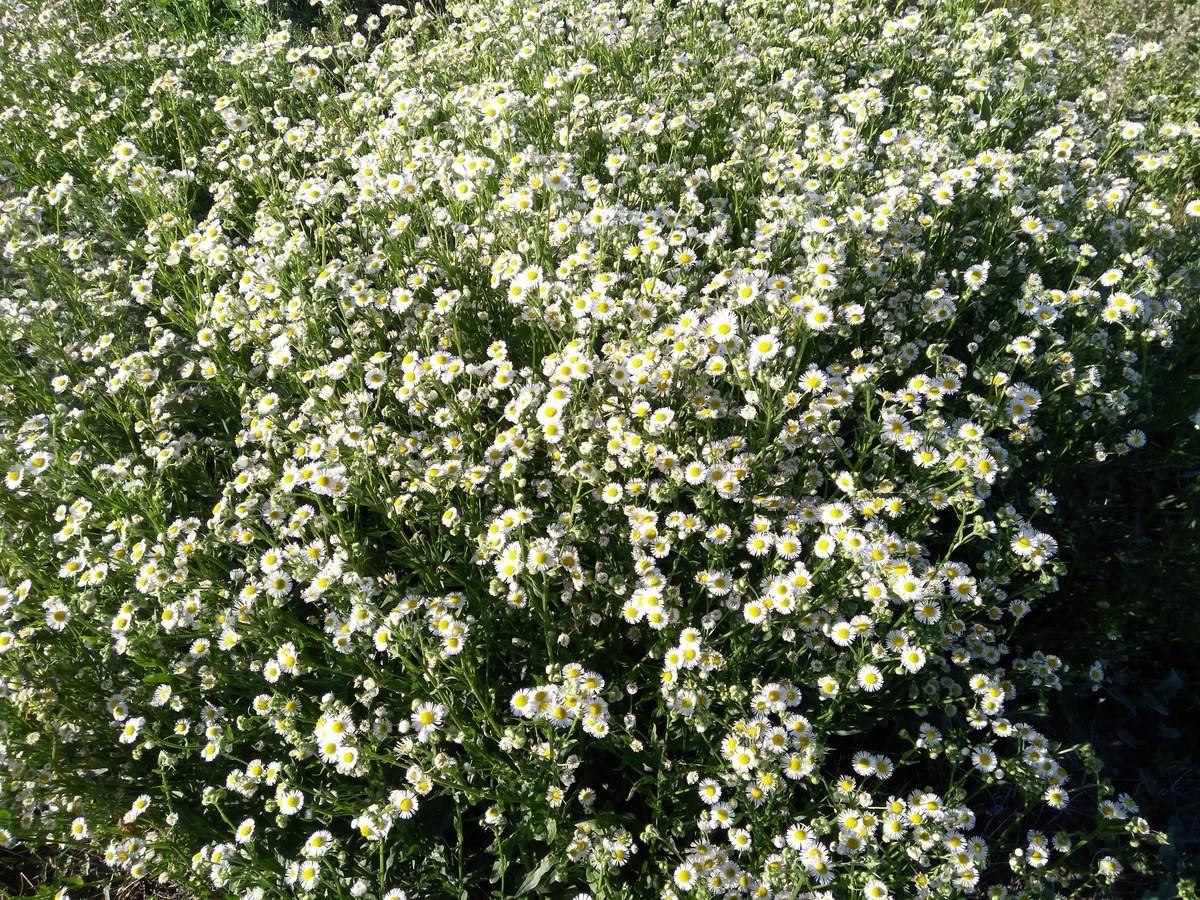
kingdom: Plantae
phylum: Tracheophyta
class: Magnoliopsida
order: Asterales
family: Asteraceae
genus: Erigeron
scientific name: Erigeron annuus
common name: Tall fleabane
